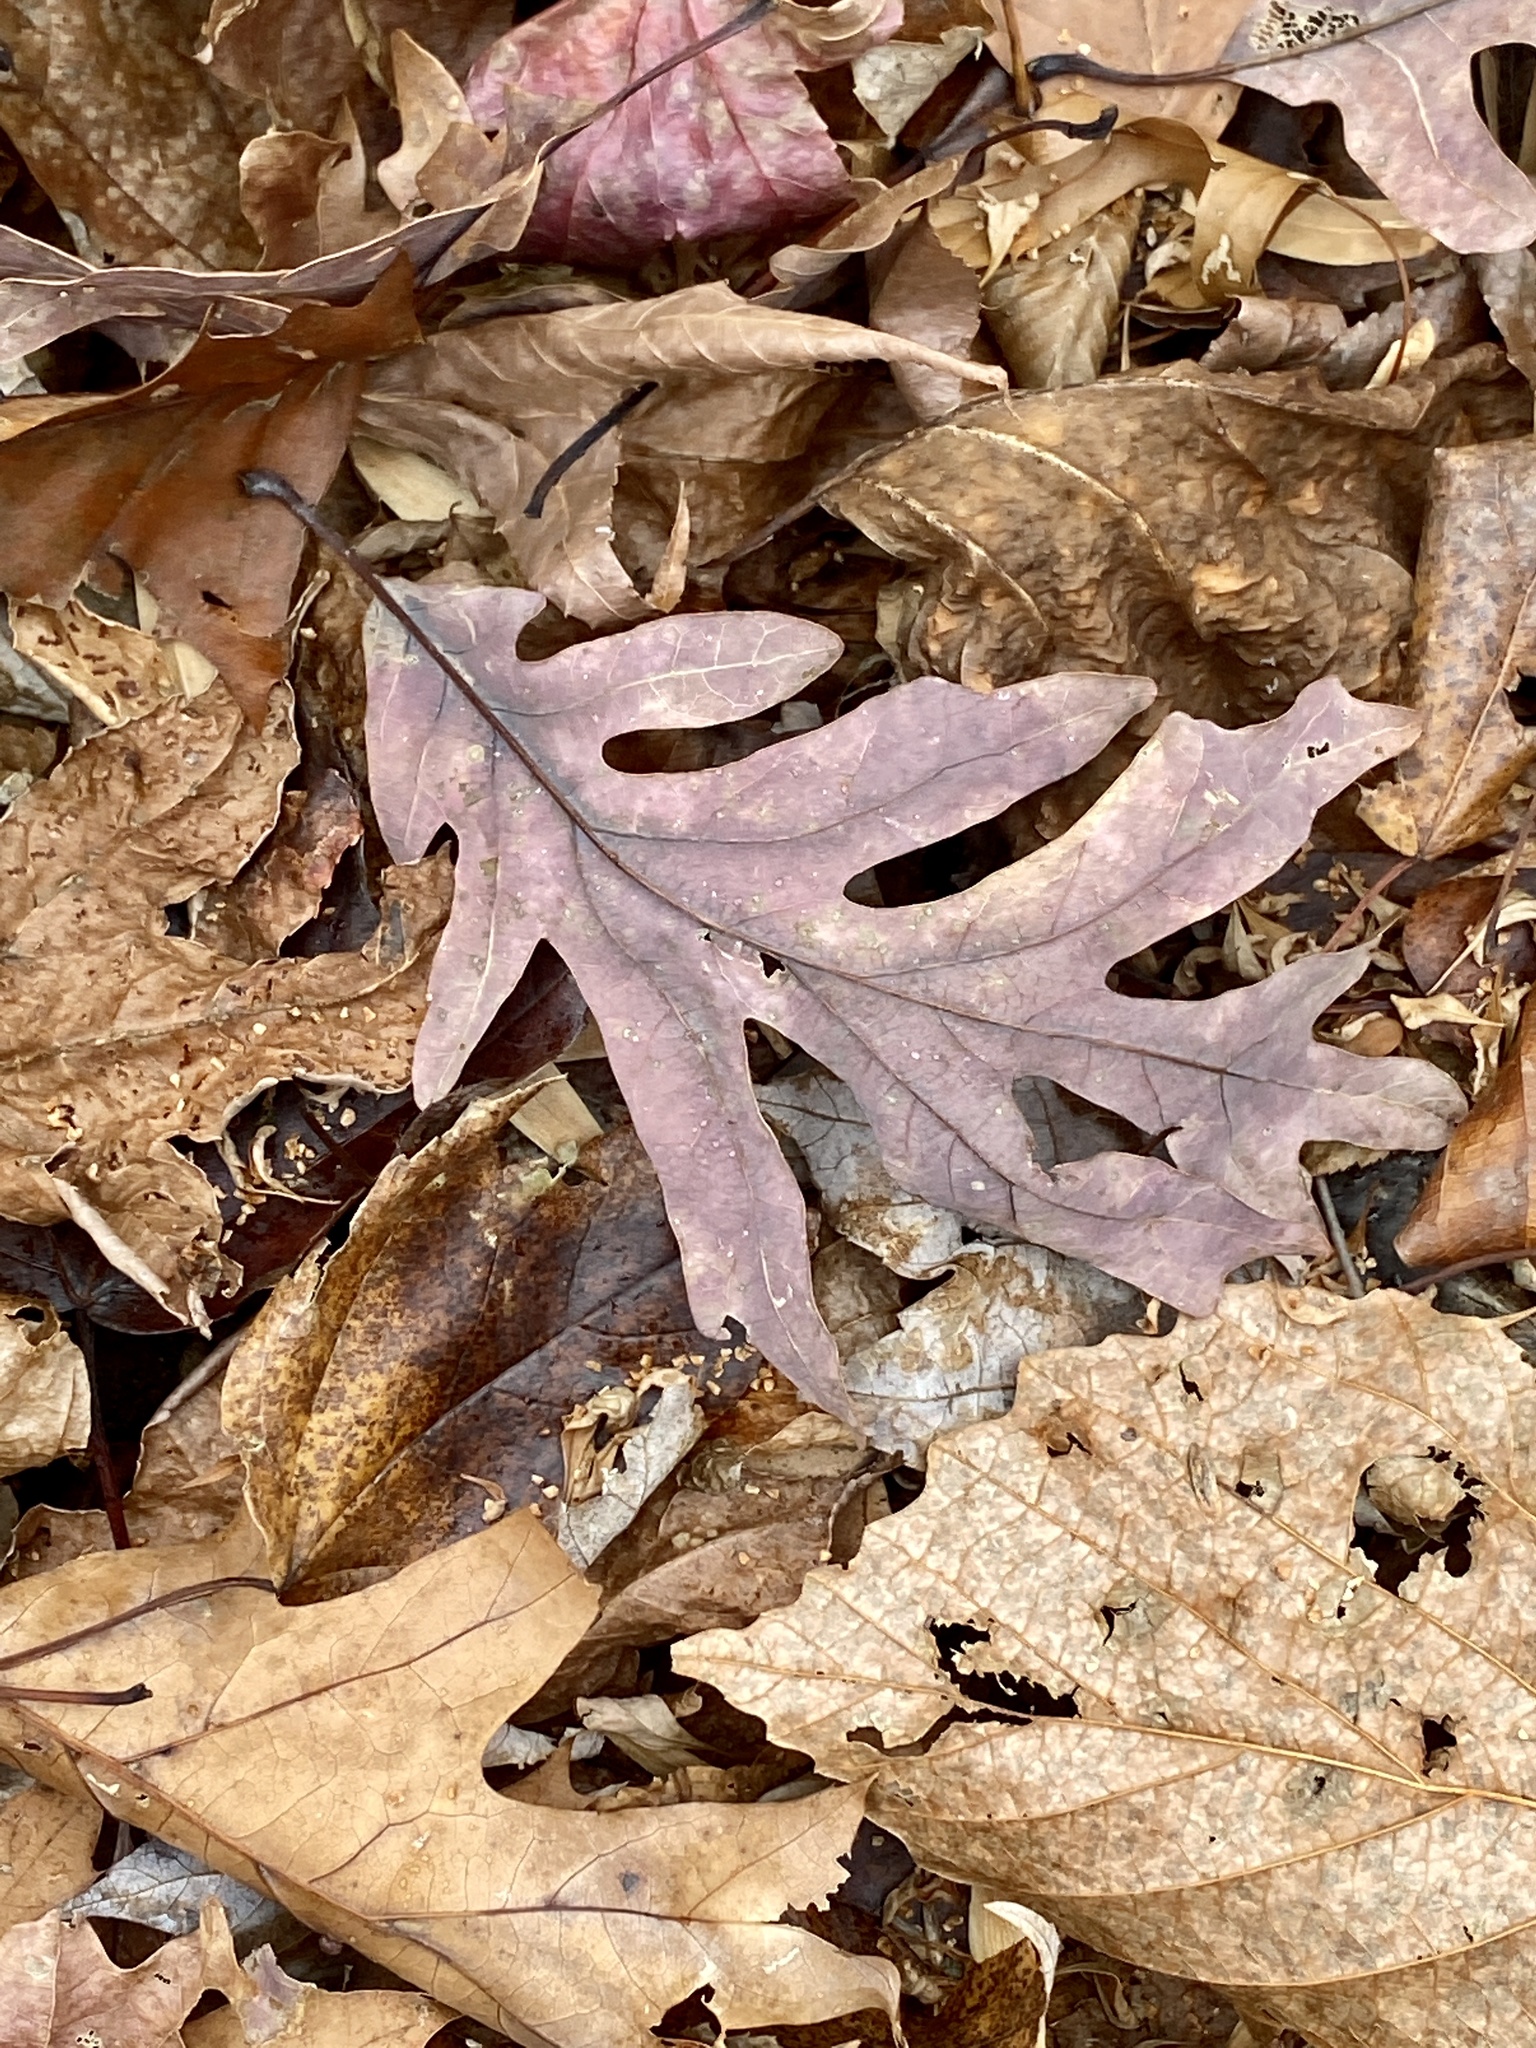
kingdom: Plantae
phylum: Tracheophyta
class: Magnoliopsida
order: Fagales
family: Fagaceae
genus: Quercus
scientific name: Quercus alba
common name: White oak
